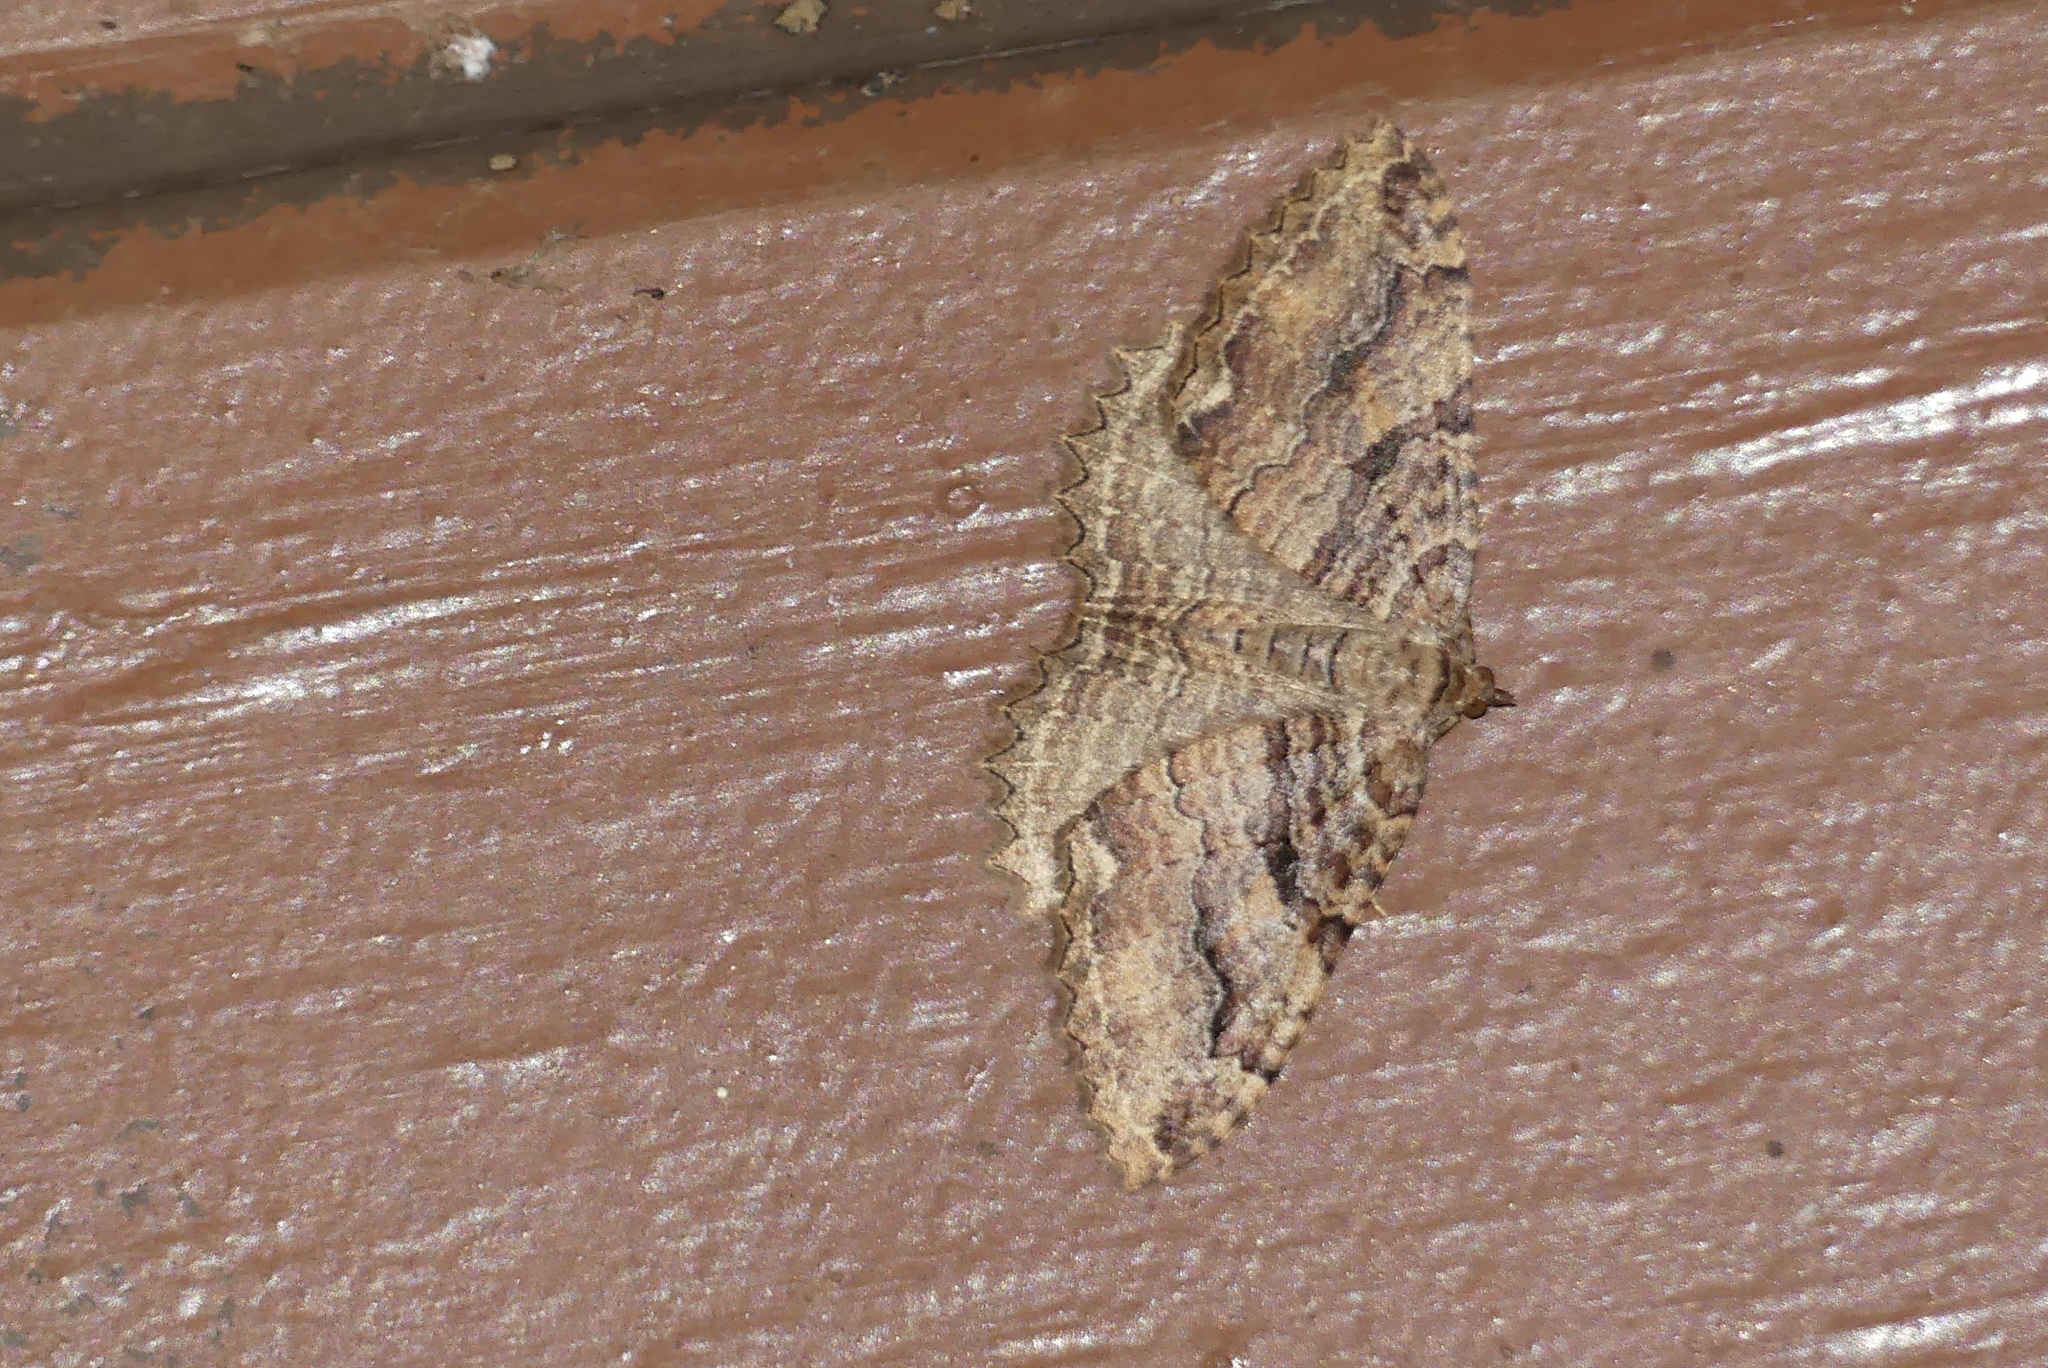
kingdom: Animalia
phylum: Arthropoda
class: Insecta
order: Lepidoptera
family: Geometridae
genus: Triphosa
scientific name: Triphosa haesitata
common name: Tissue moth
